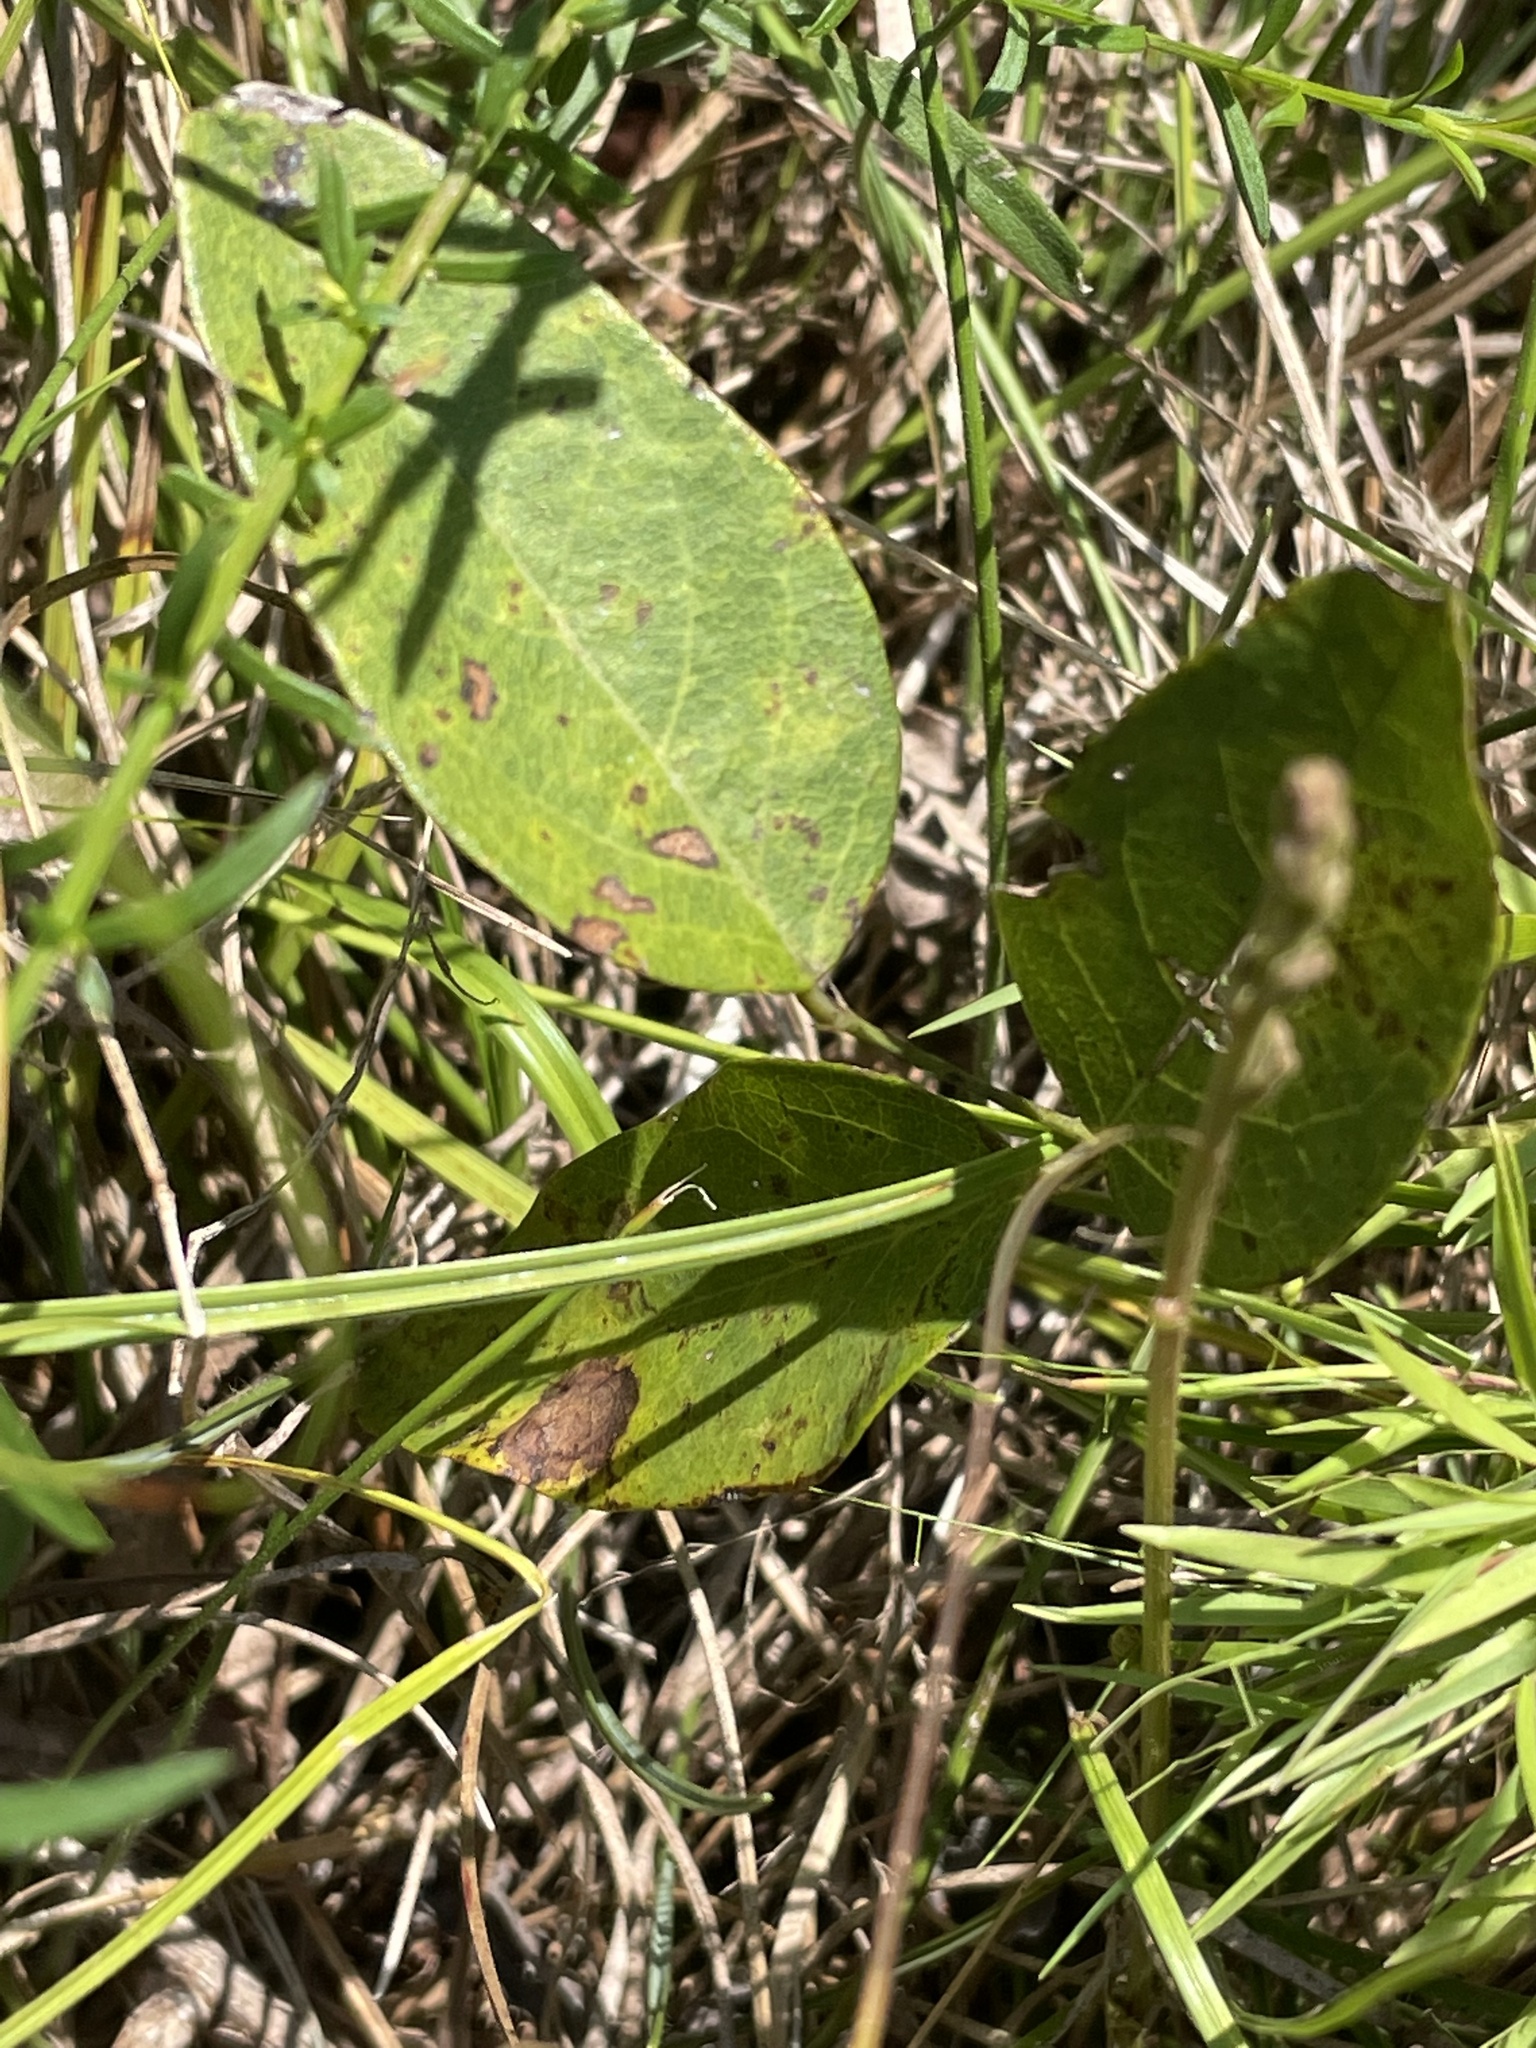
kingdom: Plantae
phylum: Tracheophyta
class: Magnoliopsida
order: Fabales
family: Fabaceae
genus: Clitoria
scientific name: Clitoria mariana
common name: Butterfly-pea
